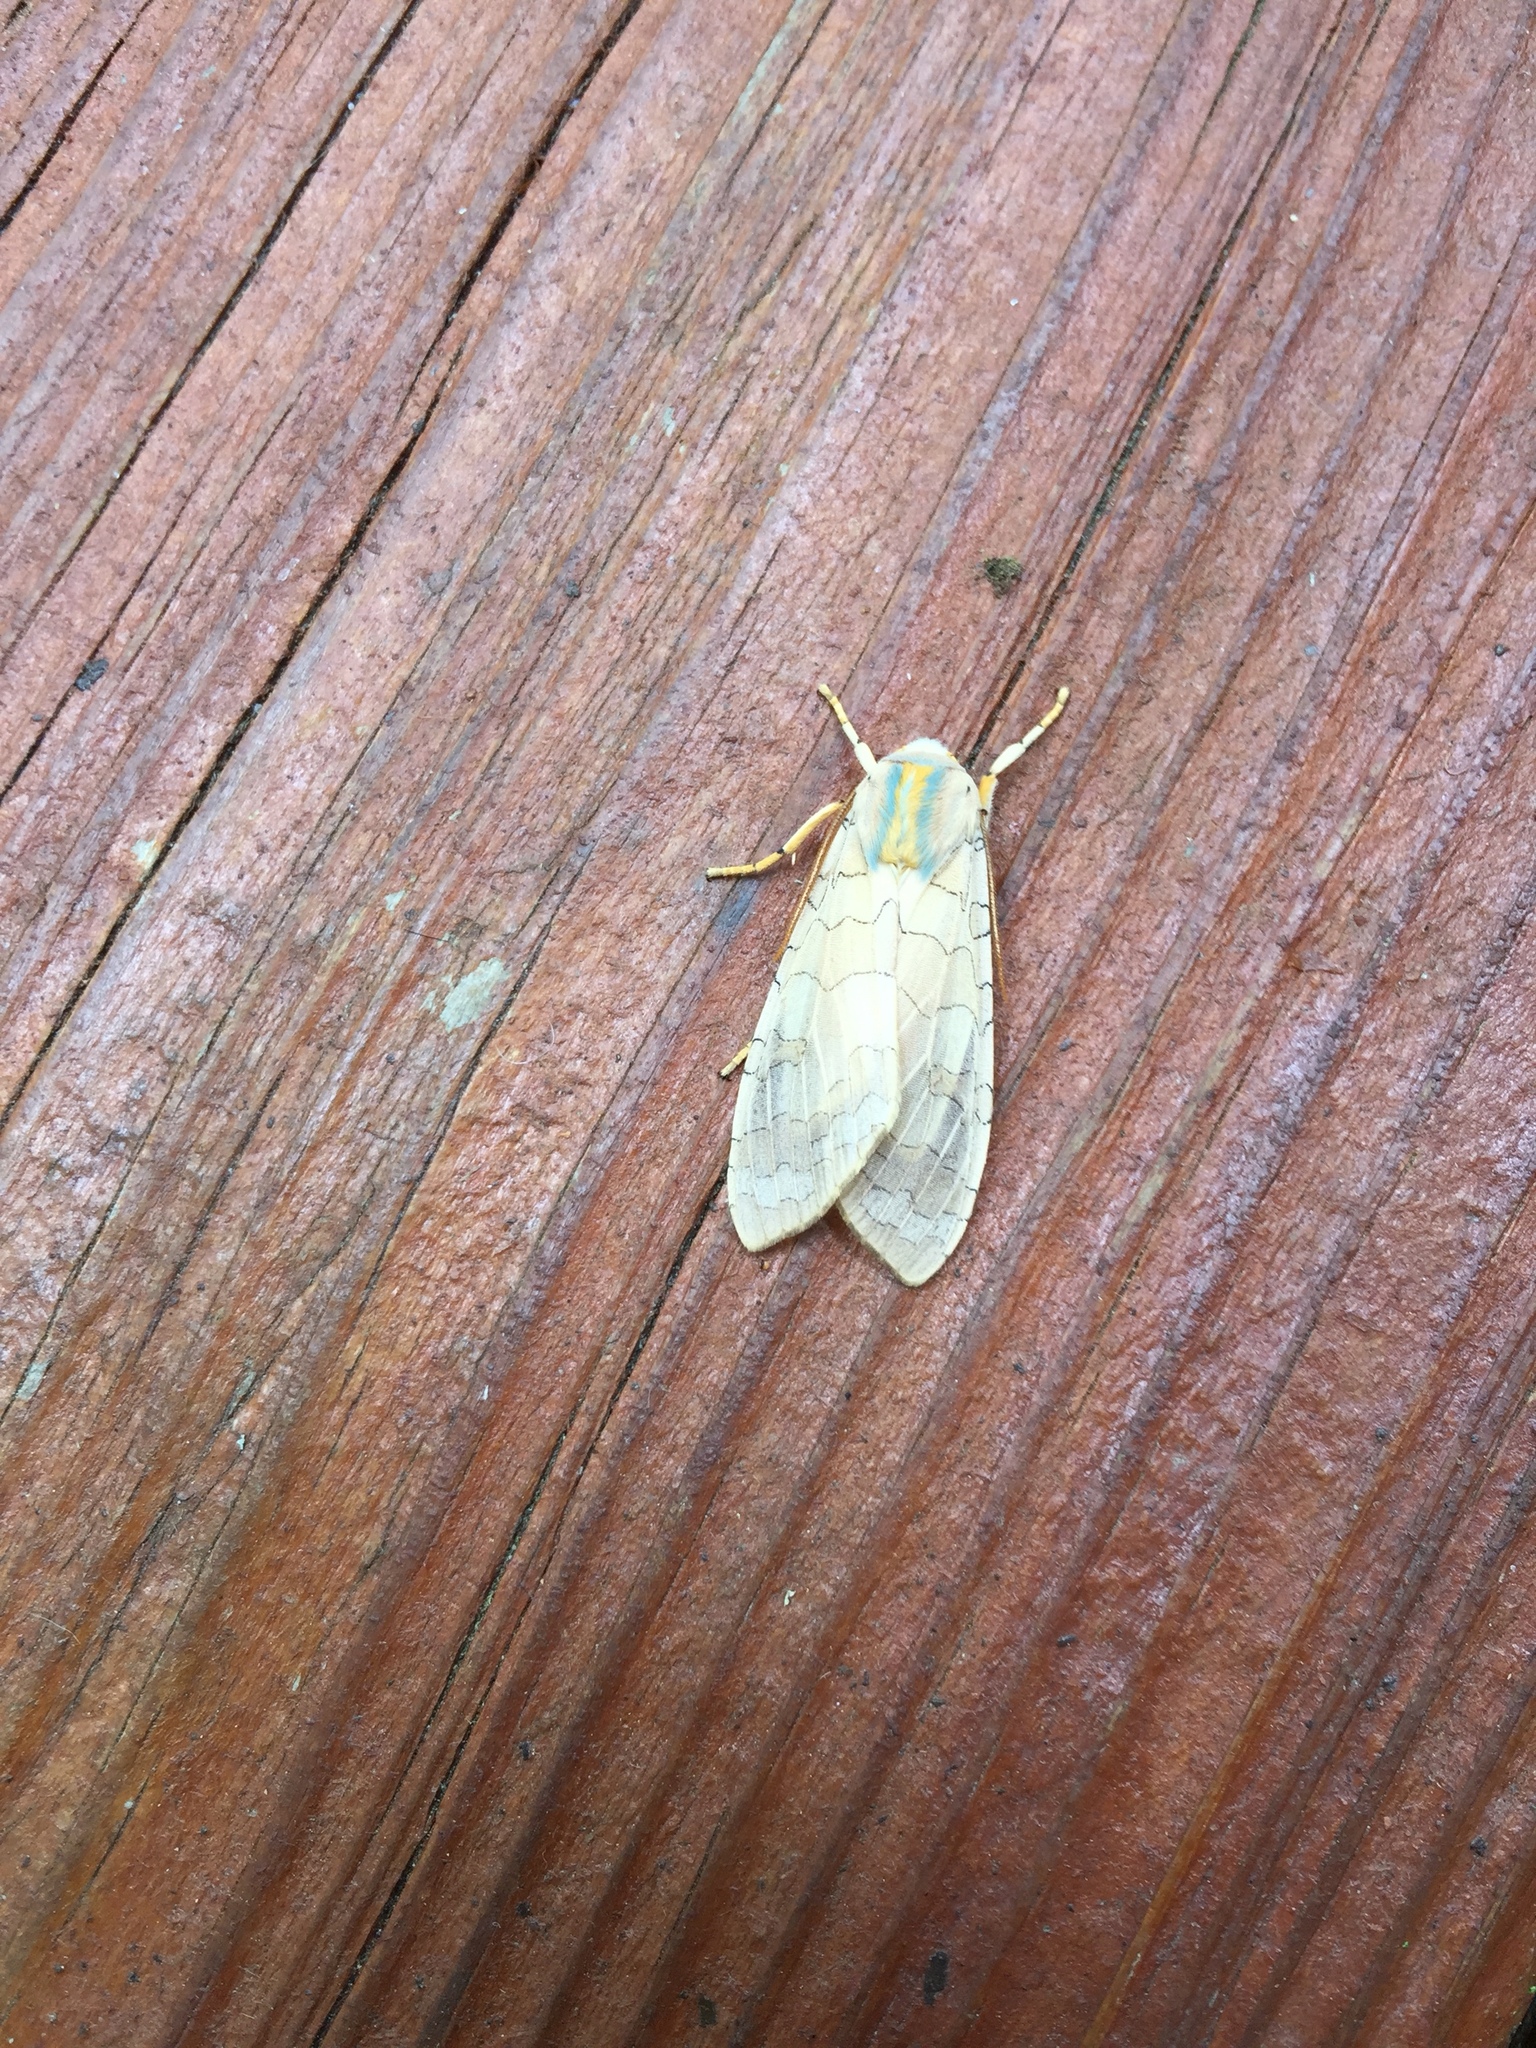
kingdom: Animalia
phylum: Arthropoda
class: Insecta
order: Lepidoptera
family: Erebidae
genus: Halysidota
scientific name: Halysidota
